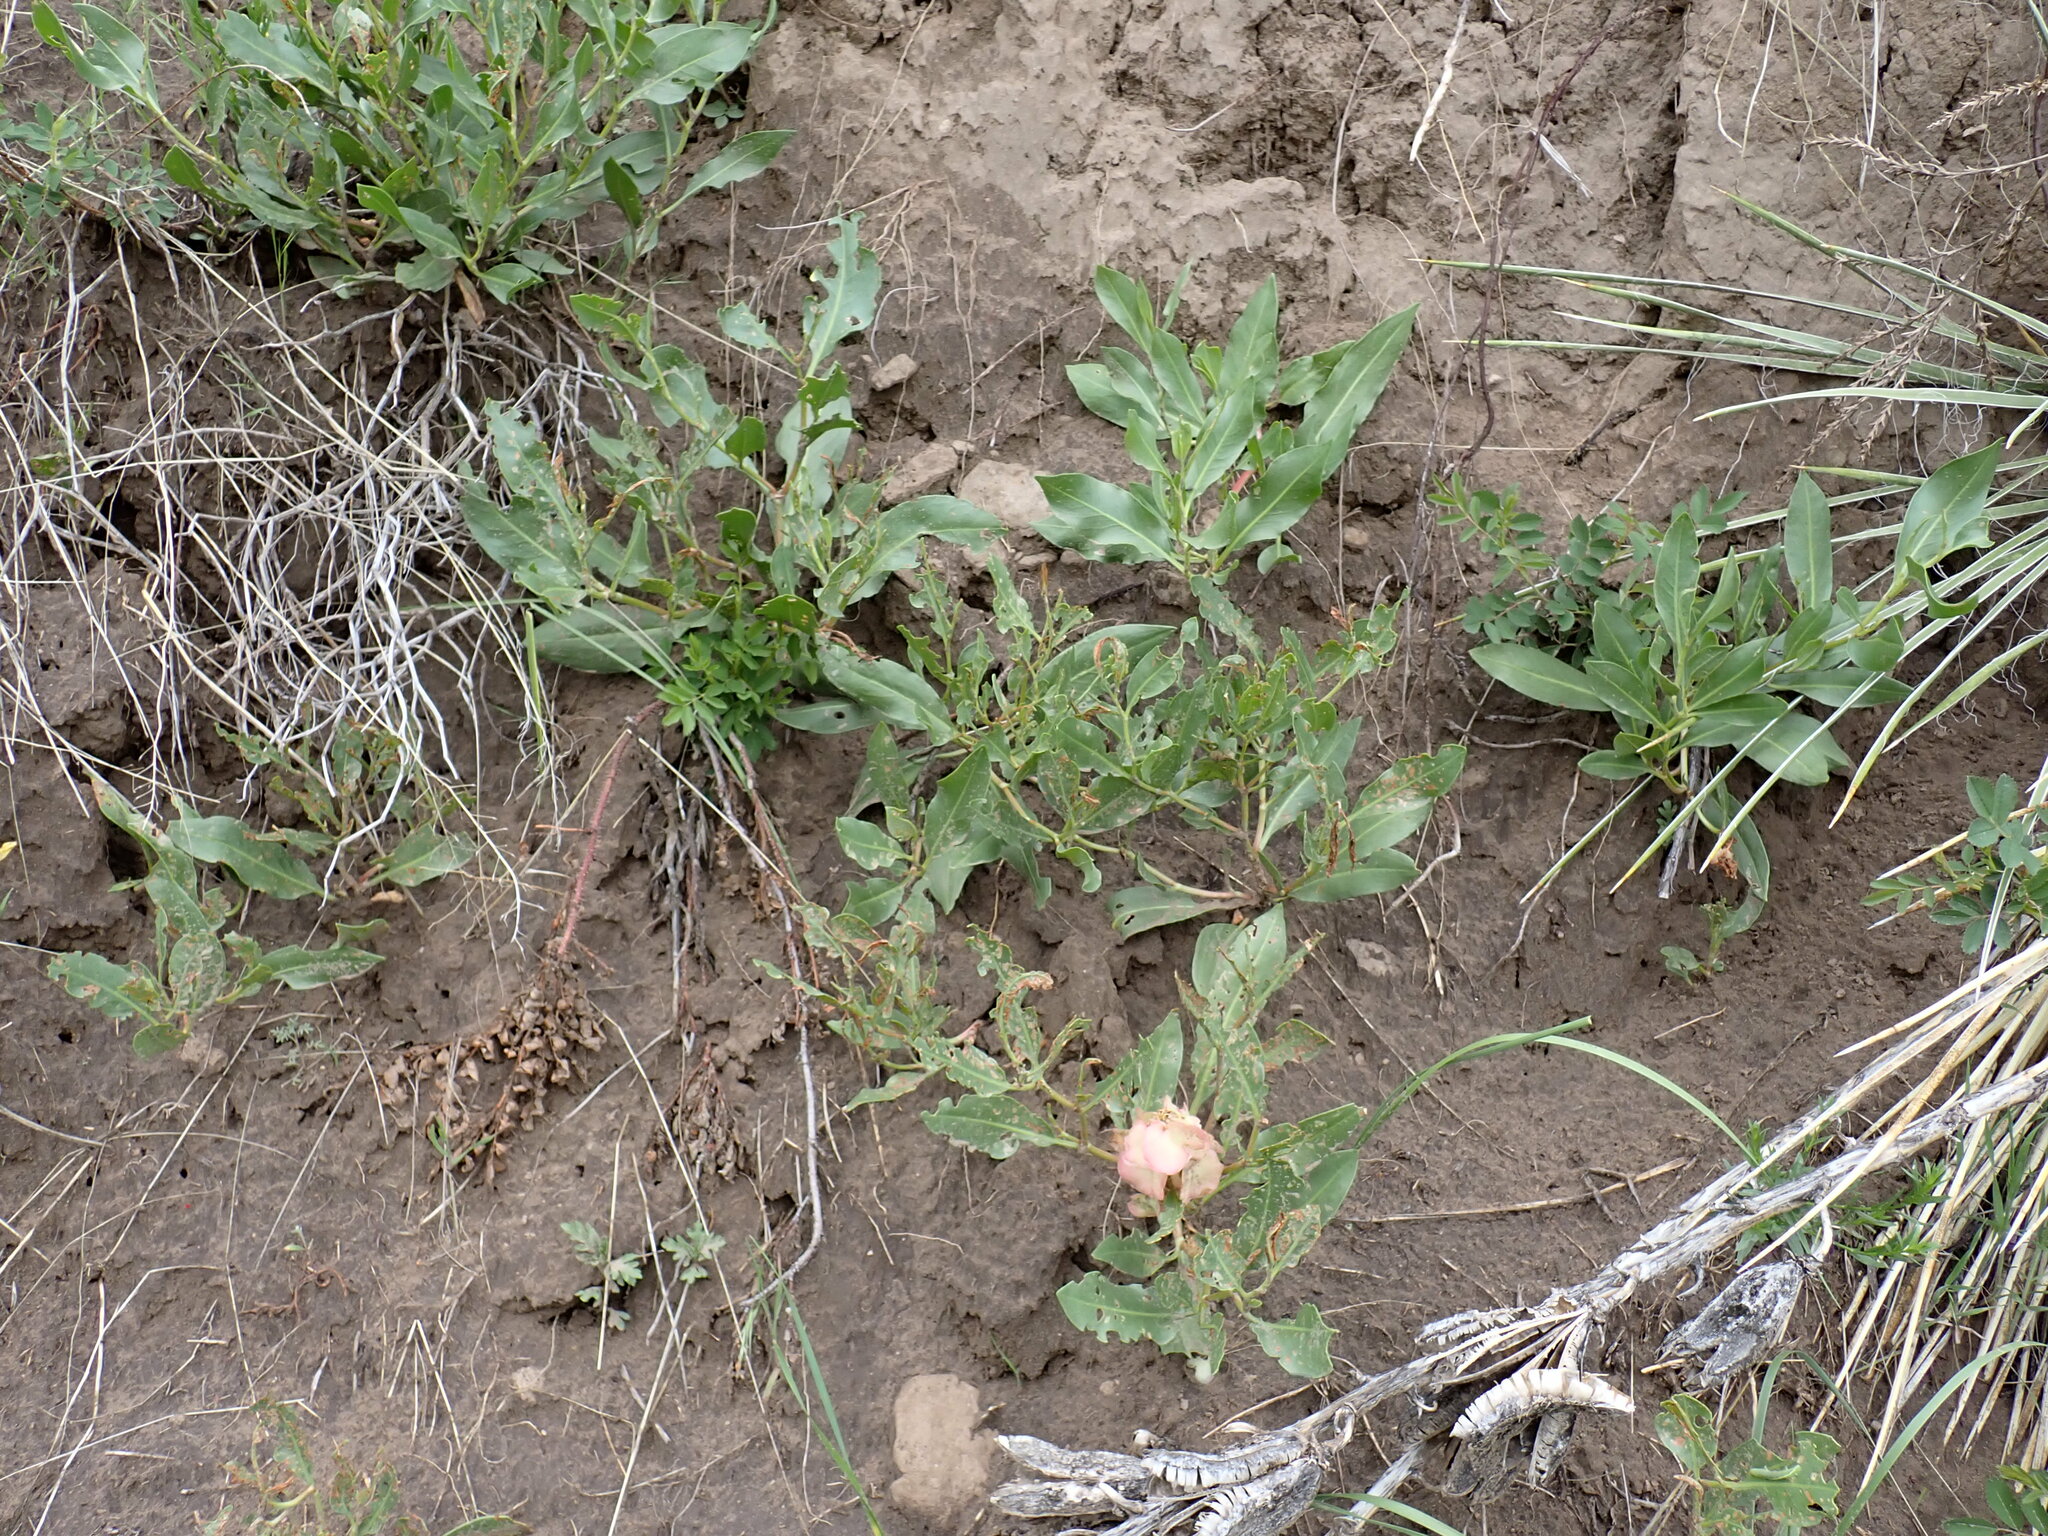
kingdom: Plantae
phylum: Tracheophyta
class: Magnoliopsida
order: Caryophyllales
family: Polygonaceae
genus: Rumex
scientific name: Rumex venosus
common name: Winged dock
